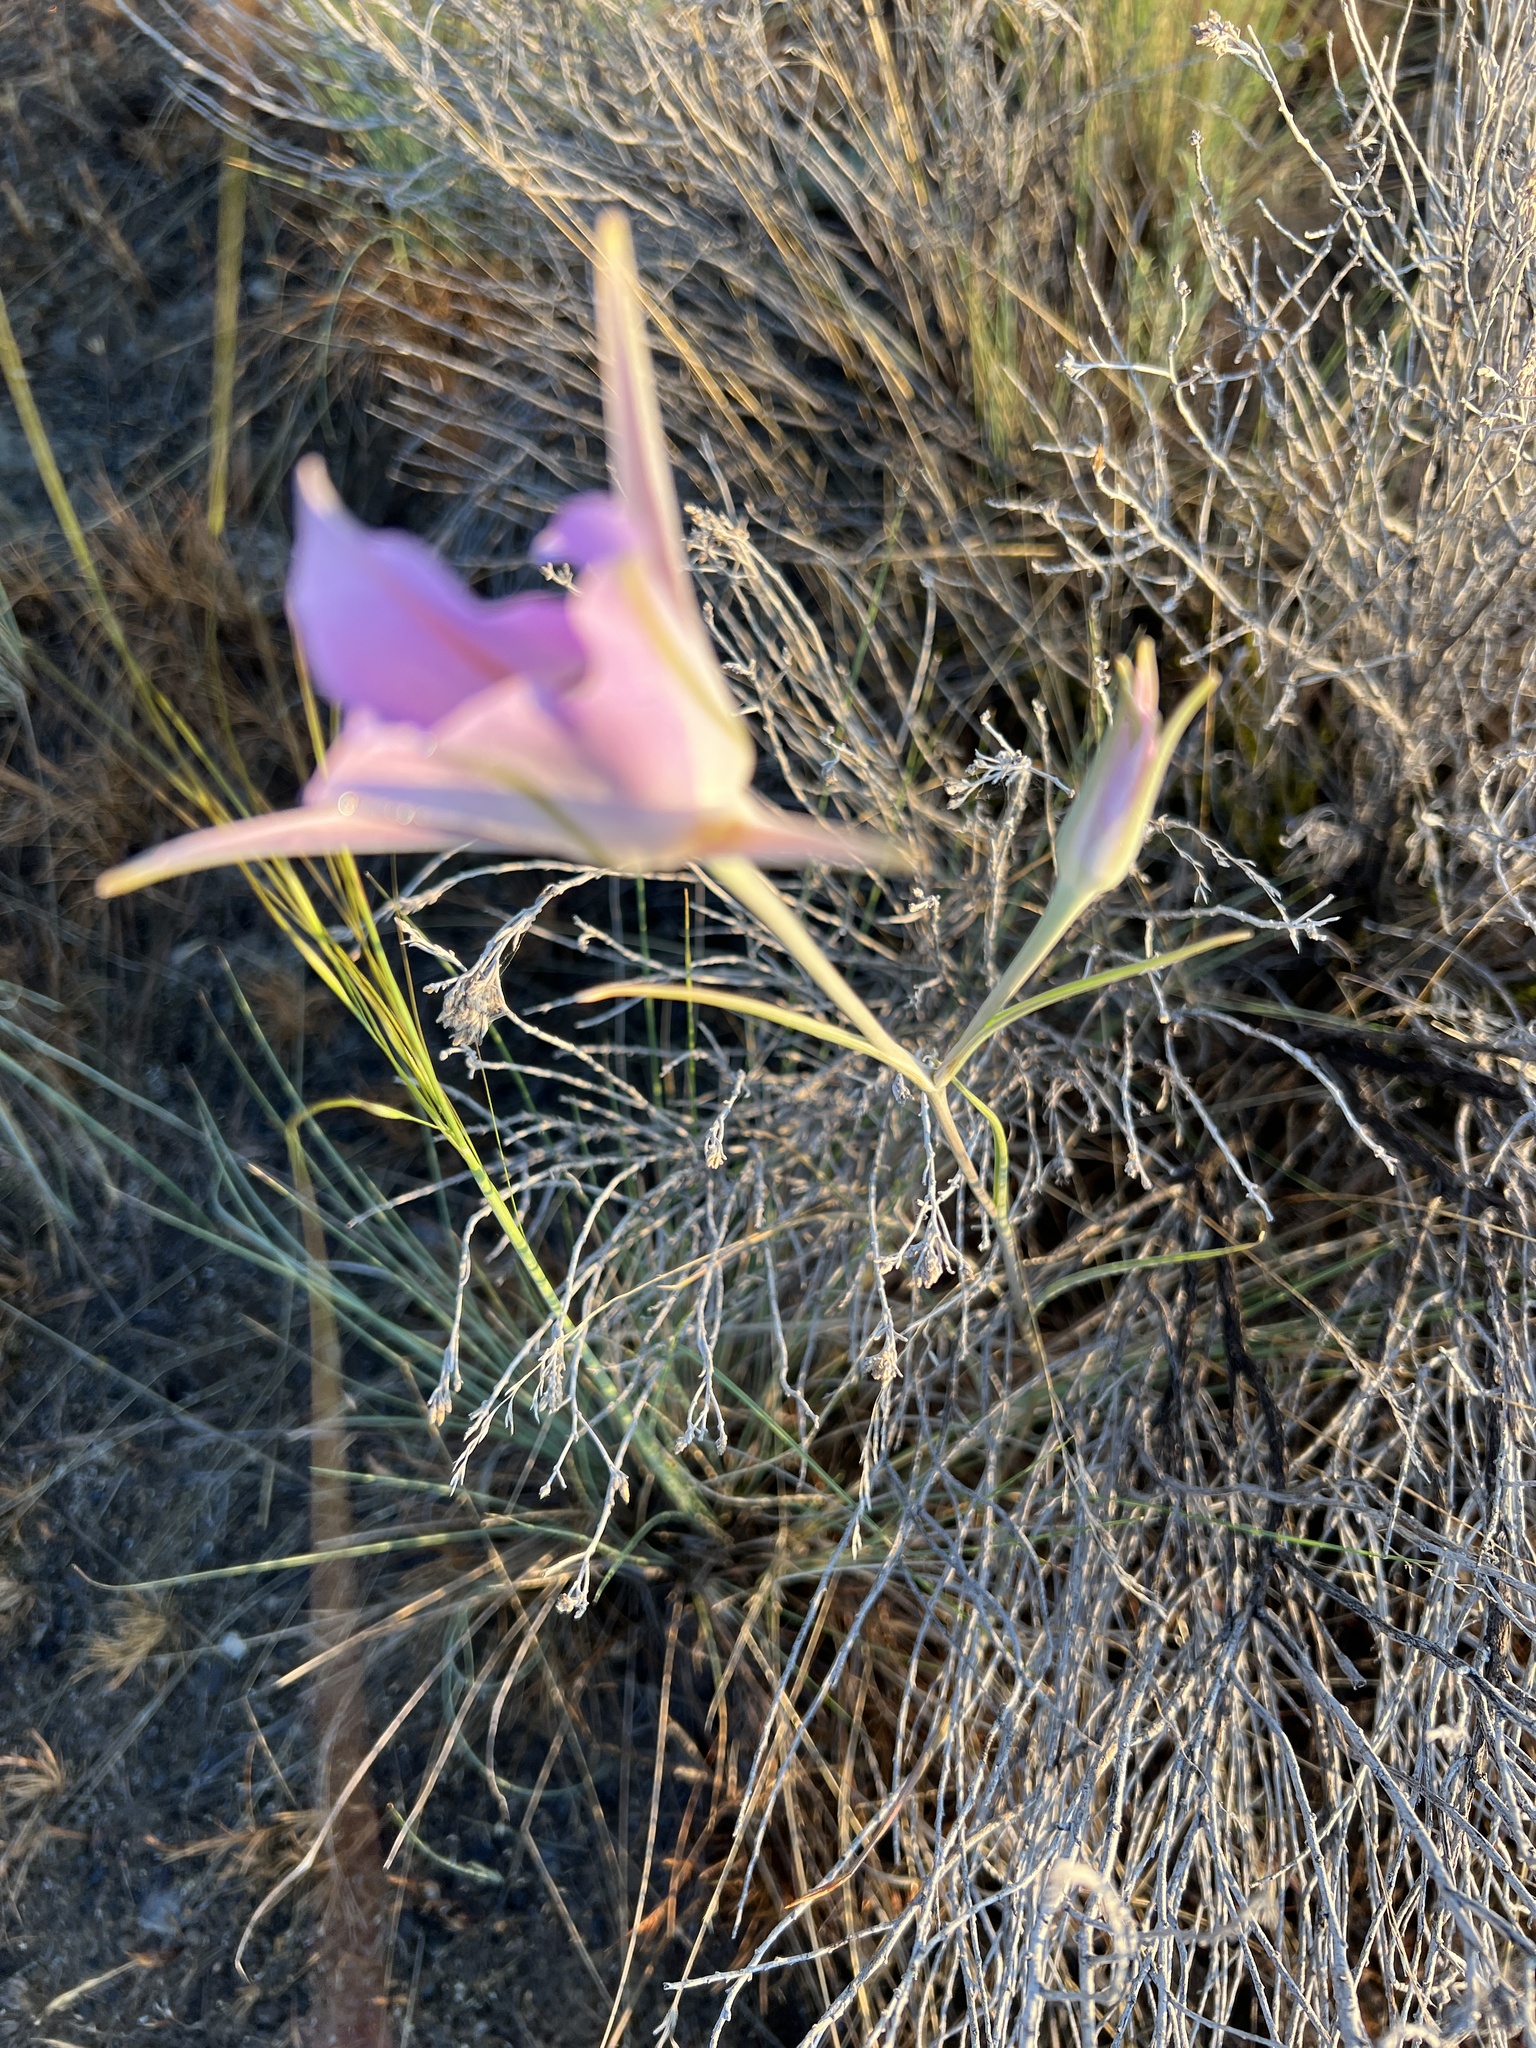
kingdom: Plantae
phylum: Tracheophyta
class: Liliopsida
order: Liliales
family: Liliaceae
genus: Calochortus
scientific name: Calochortus macrocarpus
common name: Green-band mariposa lily
